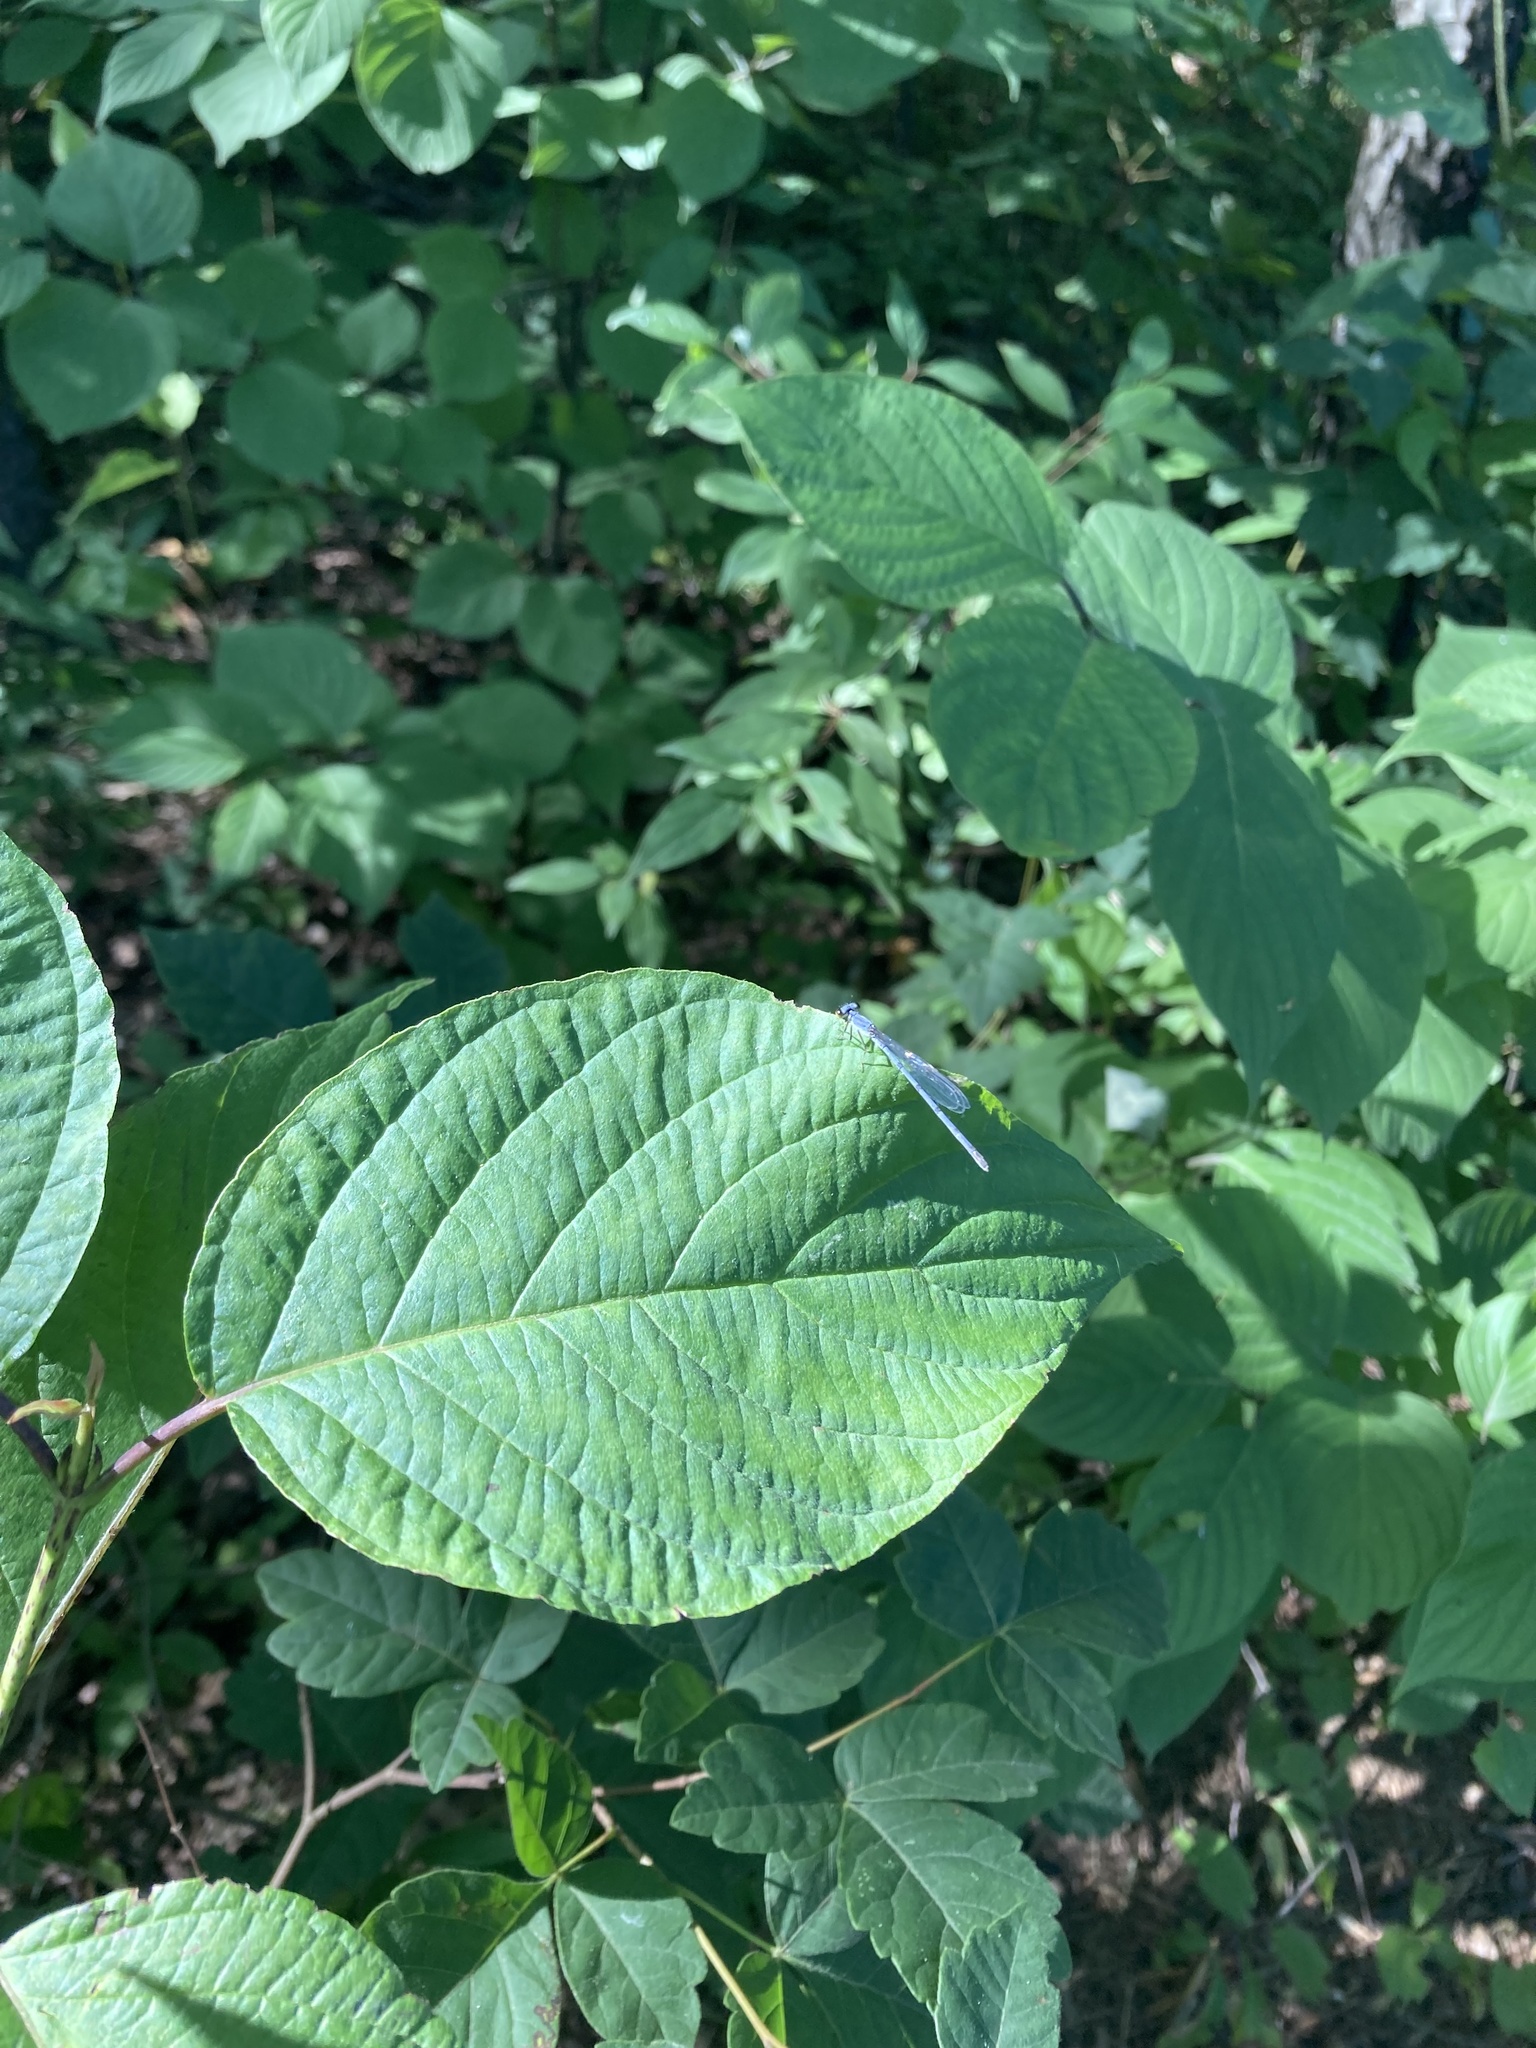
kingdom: Animalia
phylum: Arthropoda
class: Insecta
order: Odonata
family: Coenagrionidae
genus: Ischnura
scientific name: Ischnura verticalis
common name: Eastern forktail
